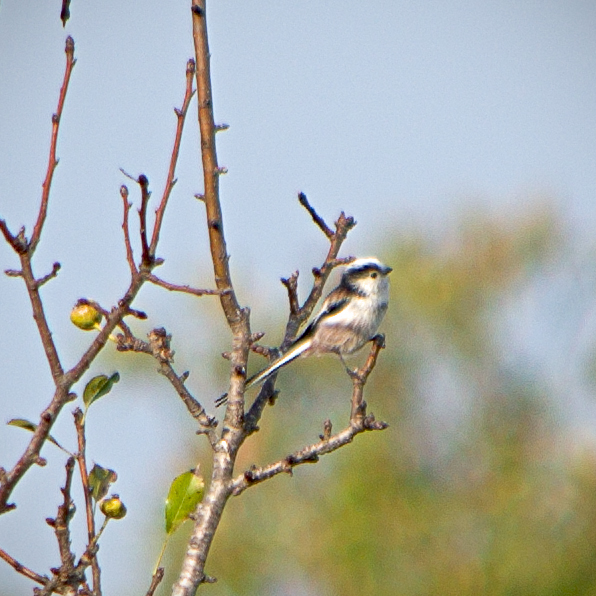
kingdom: Animalia
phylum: Chordata
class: Aves
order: Passeriformes
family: Aegithalidae
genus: Aegithalos
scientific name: Aegithalos caudatus
